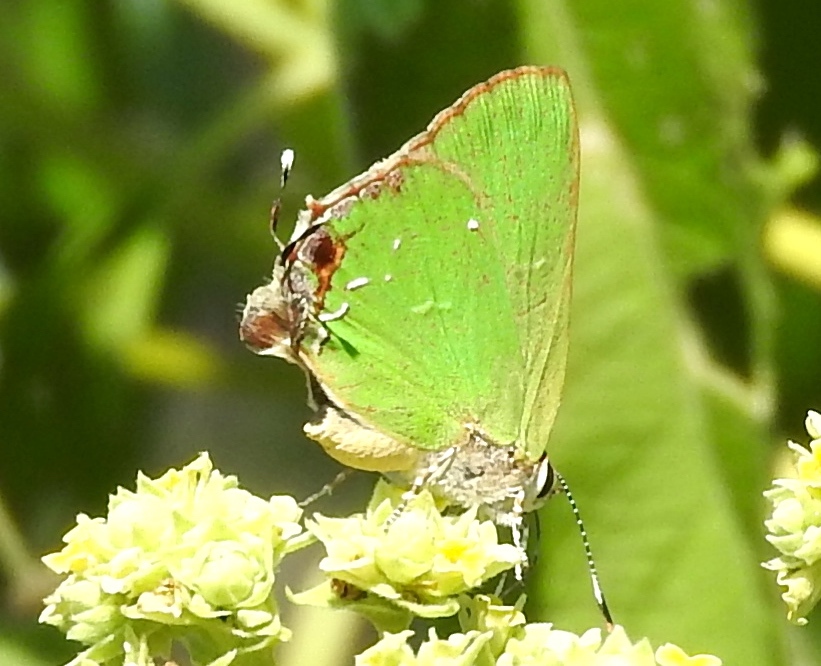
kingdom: Animalia
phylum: Arthropoda
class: Insecta
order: Lepidoptera
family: Lycaenidae
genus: Cyanophrys
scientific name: Cyanophrys miserabilis
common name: Clench's greenstreak
